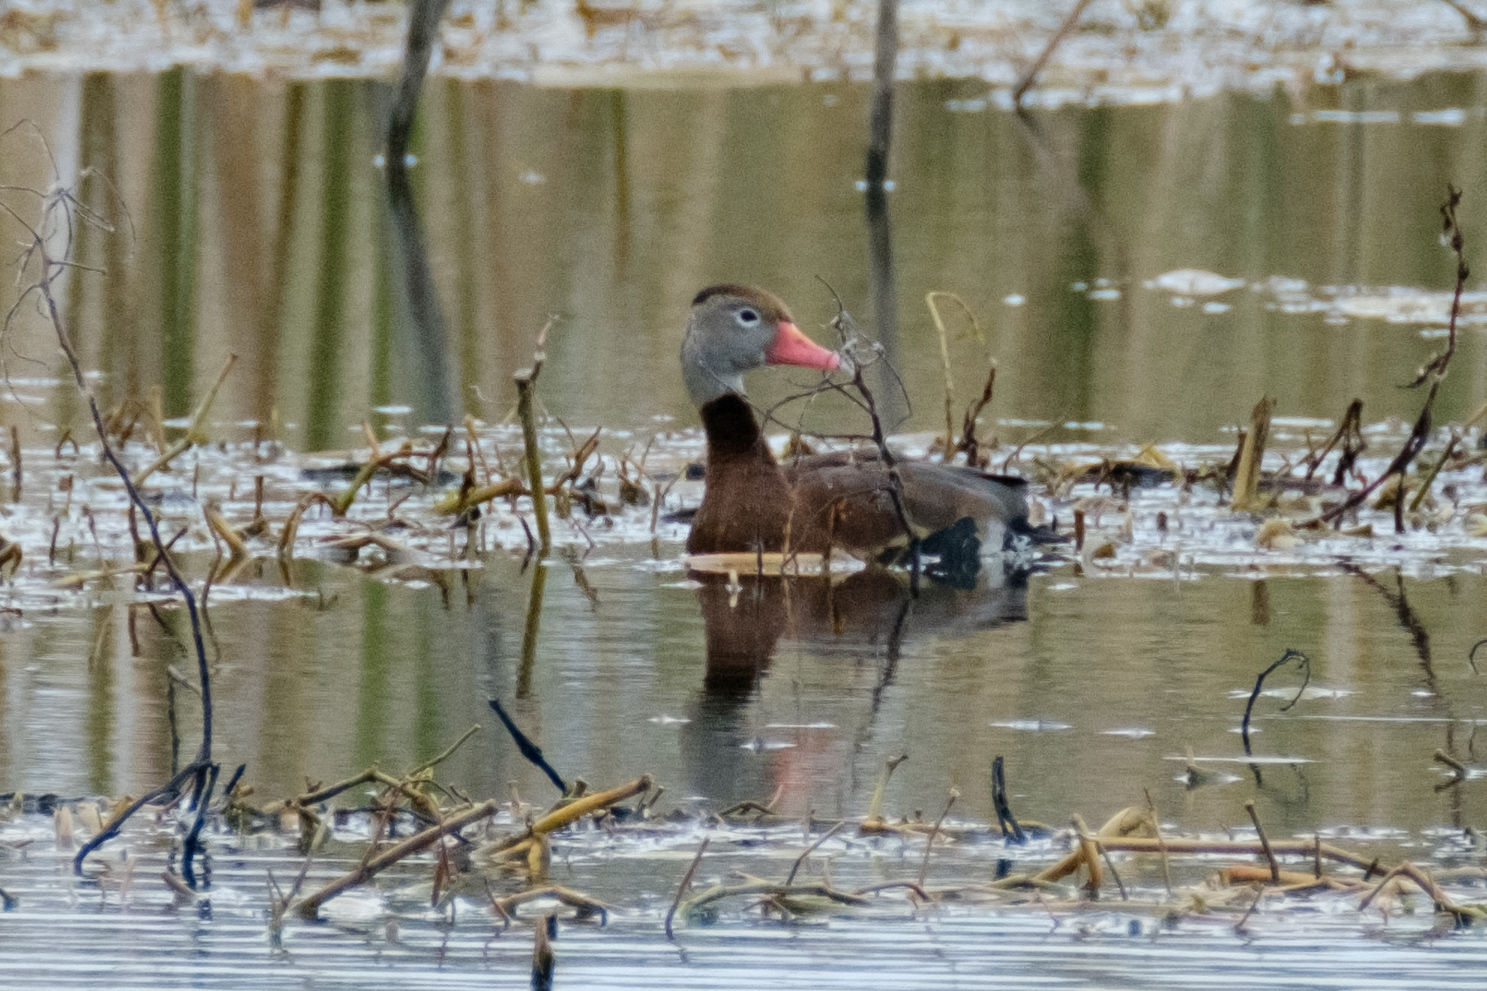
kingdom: Animalia
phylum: Chordata
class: Aves
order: Anseriformes
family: Anatidae
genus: Dendrocygna
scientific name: Dendrocygna autumnalis
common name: Black-bellied whistling duck
